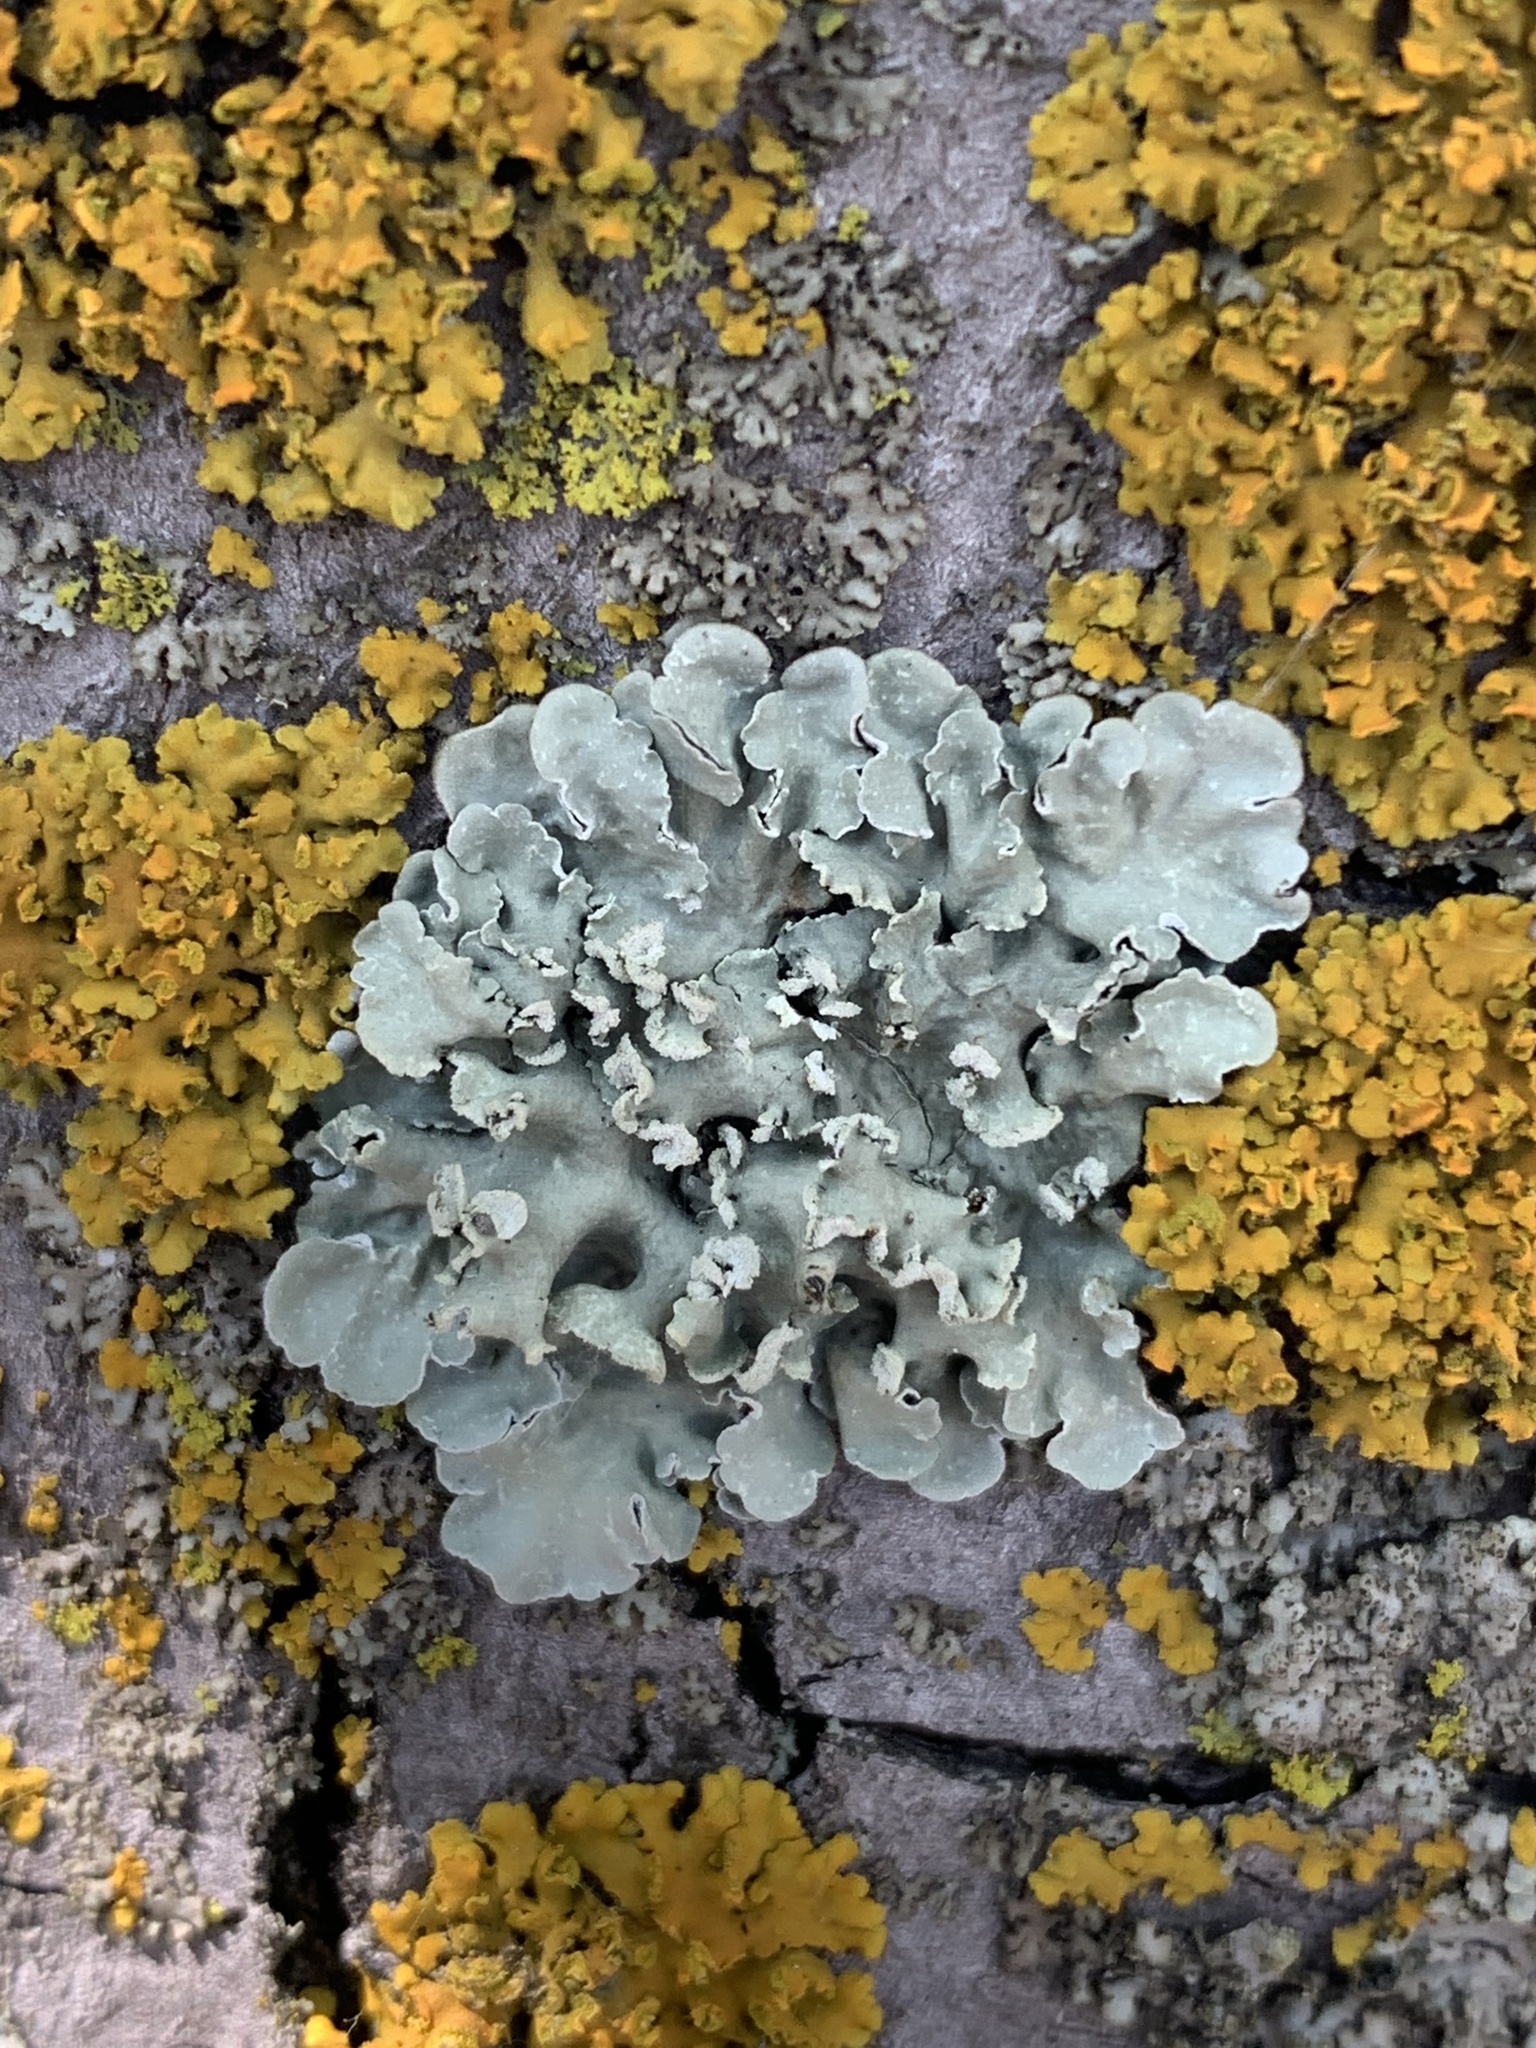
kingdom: Fungi
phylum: Ascomycota
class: Lecanoromycetes
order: Lecanorales
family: Parmeliaceae
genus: Flavopunctelia
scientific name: Flavopunctelia soredica
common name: Powder-edged speckled greenshield
